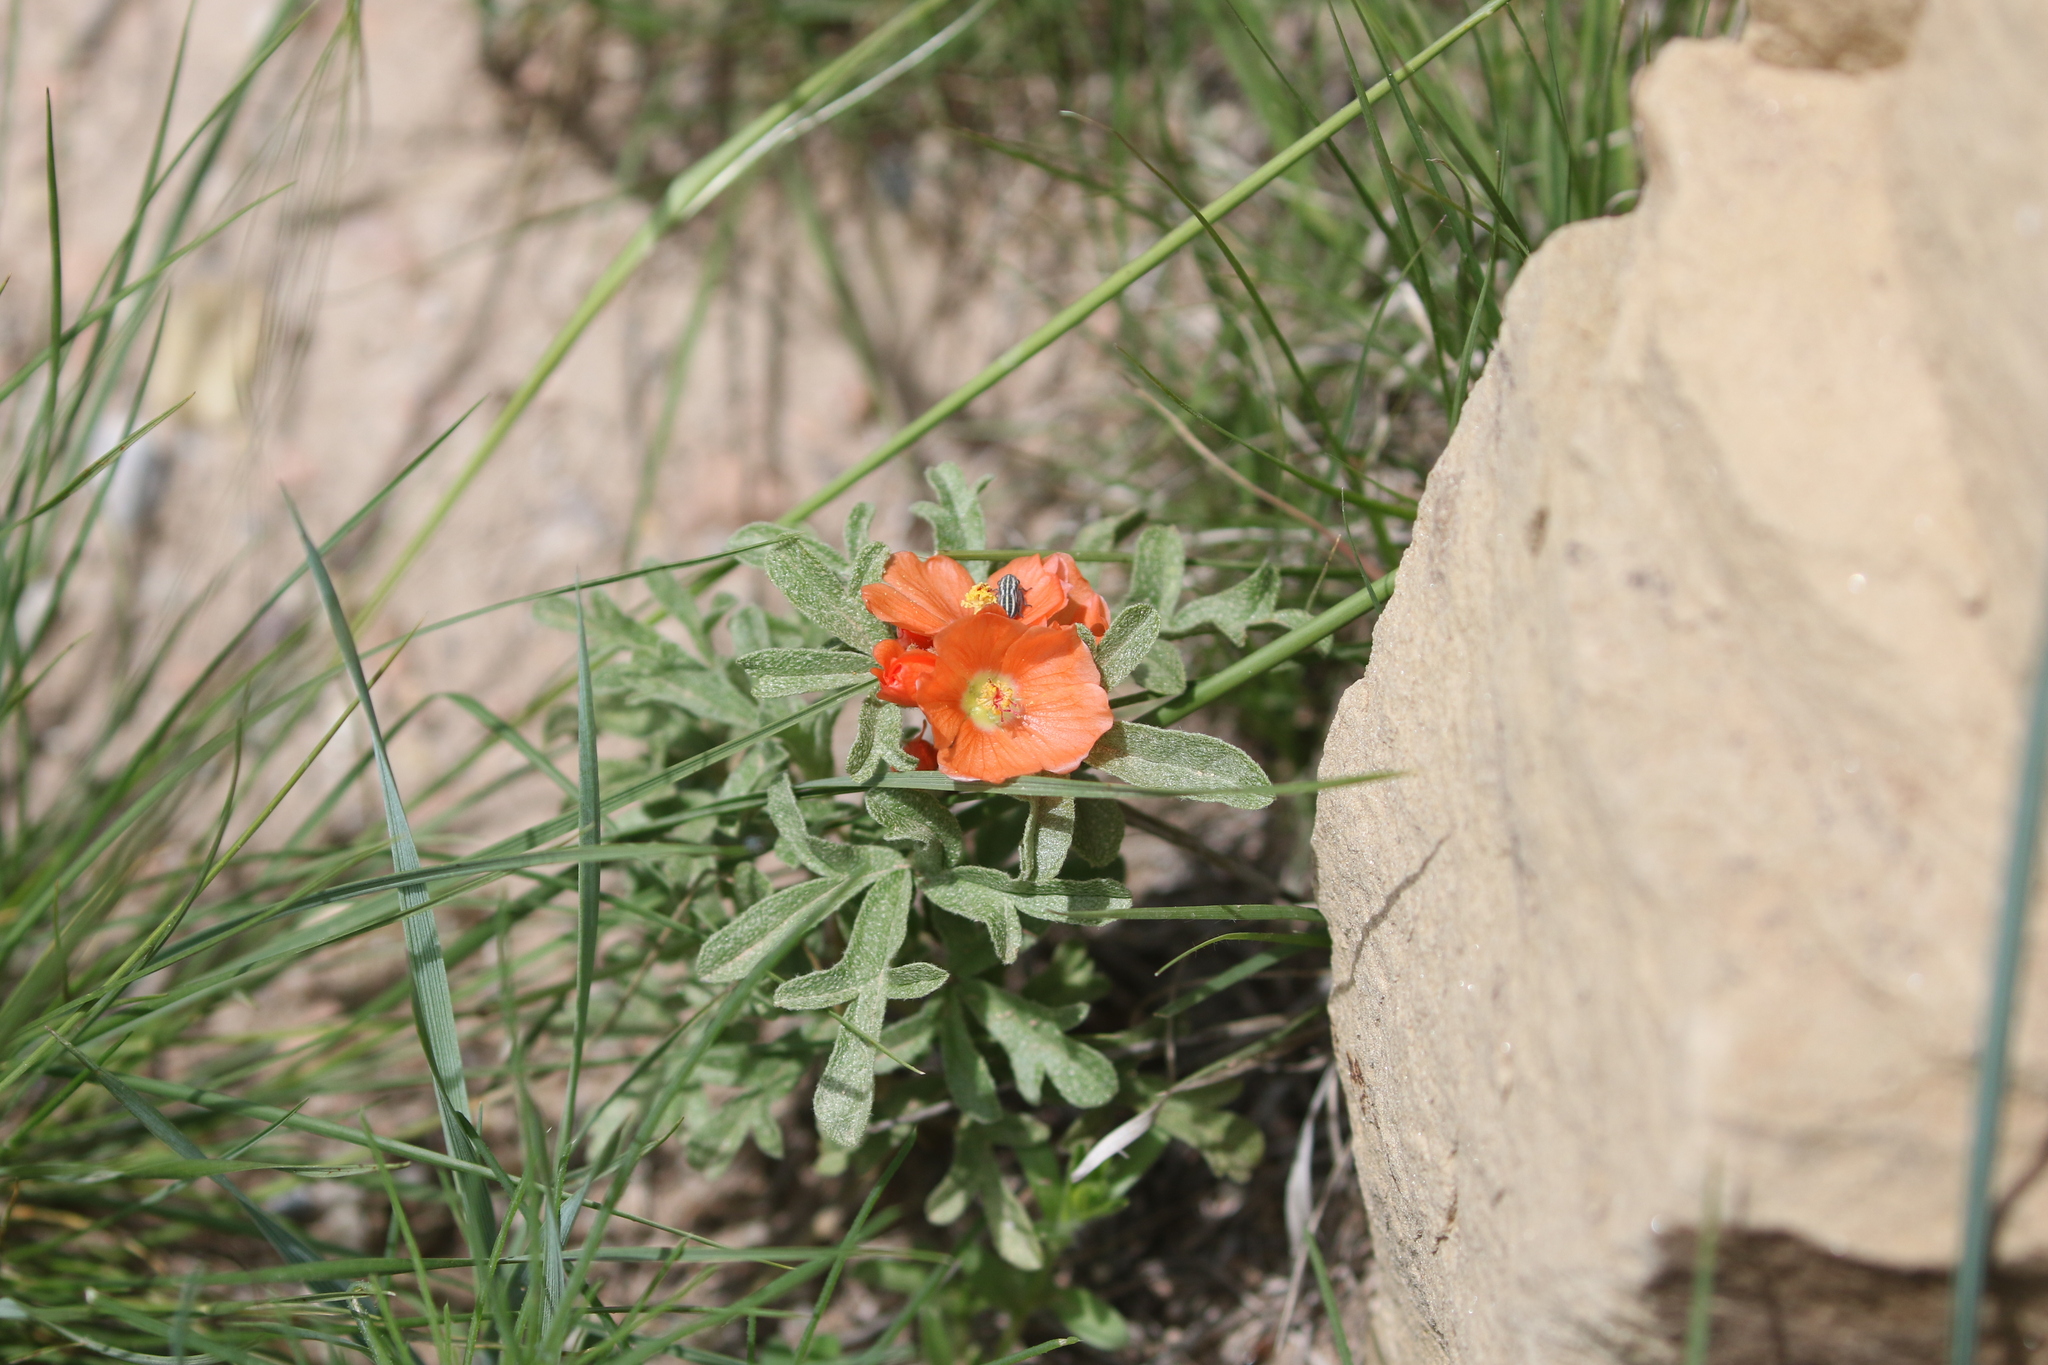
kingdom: Plantae
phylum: Tracheophyta
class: Magnoliopsida
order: Malvales
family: Malvaceae
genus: Sphaeralcea
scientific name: Sphaeralcea coccinea
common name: Moss-rose
